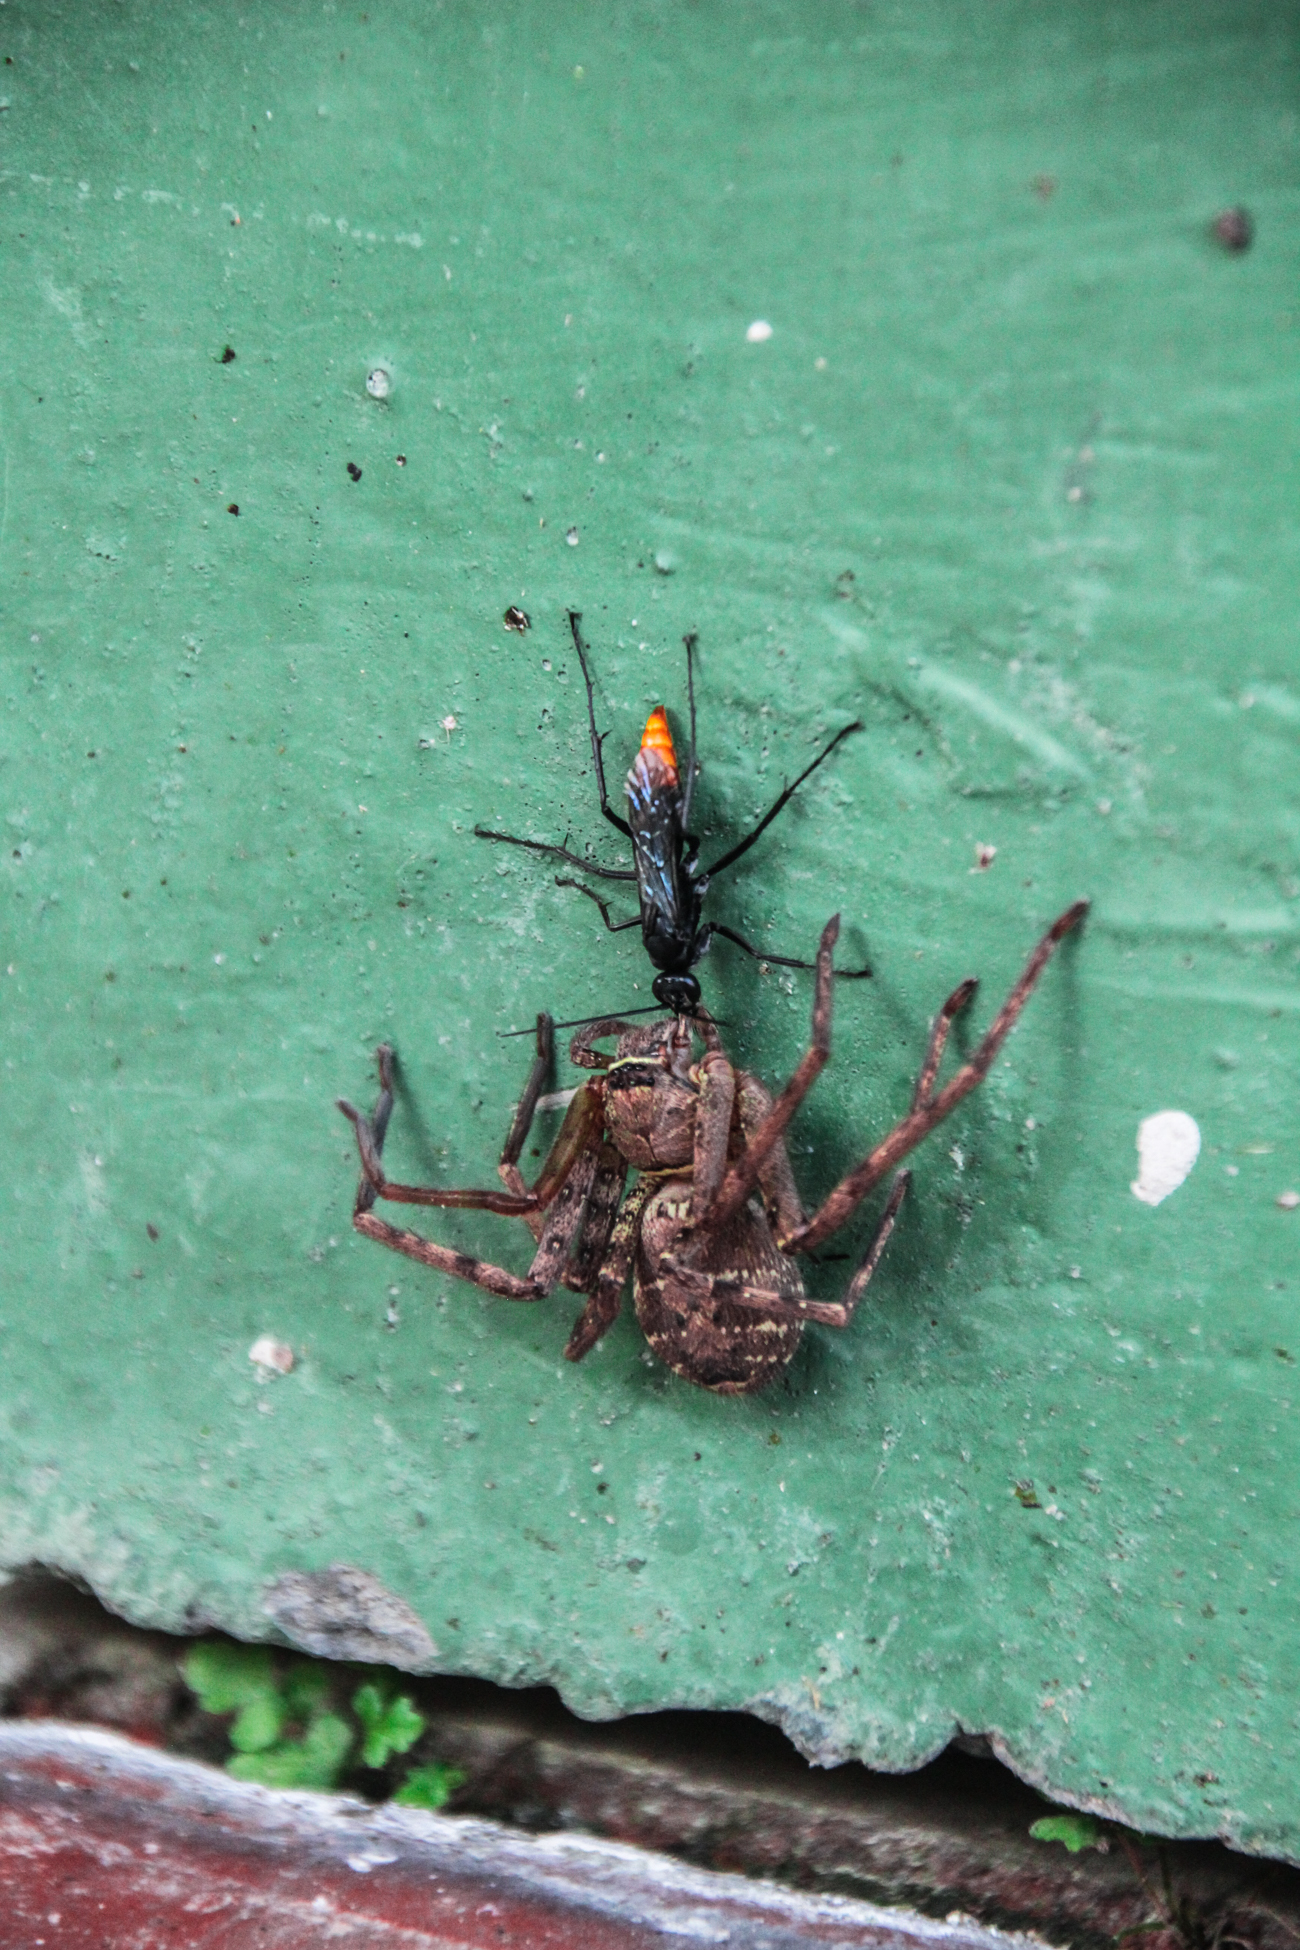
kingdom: Animalia
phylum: Arthropoda
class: Insecta
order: Hymenoptera
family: Pompilidae
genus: Tachypompilus
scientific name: Tachypompilus analis
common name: Spider wasp
